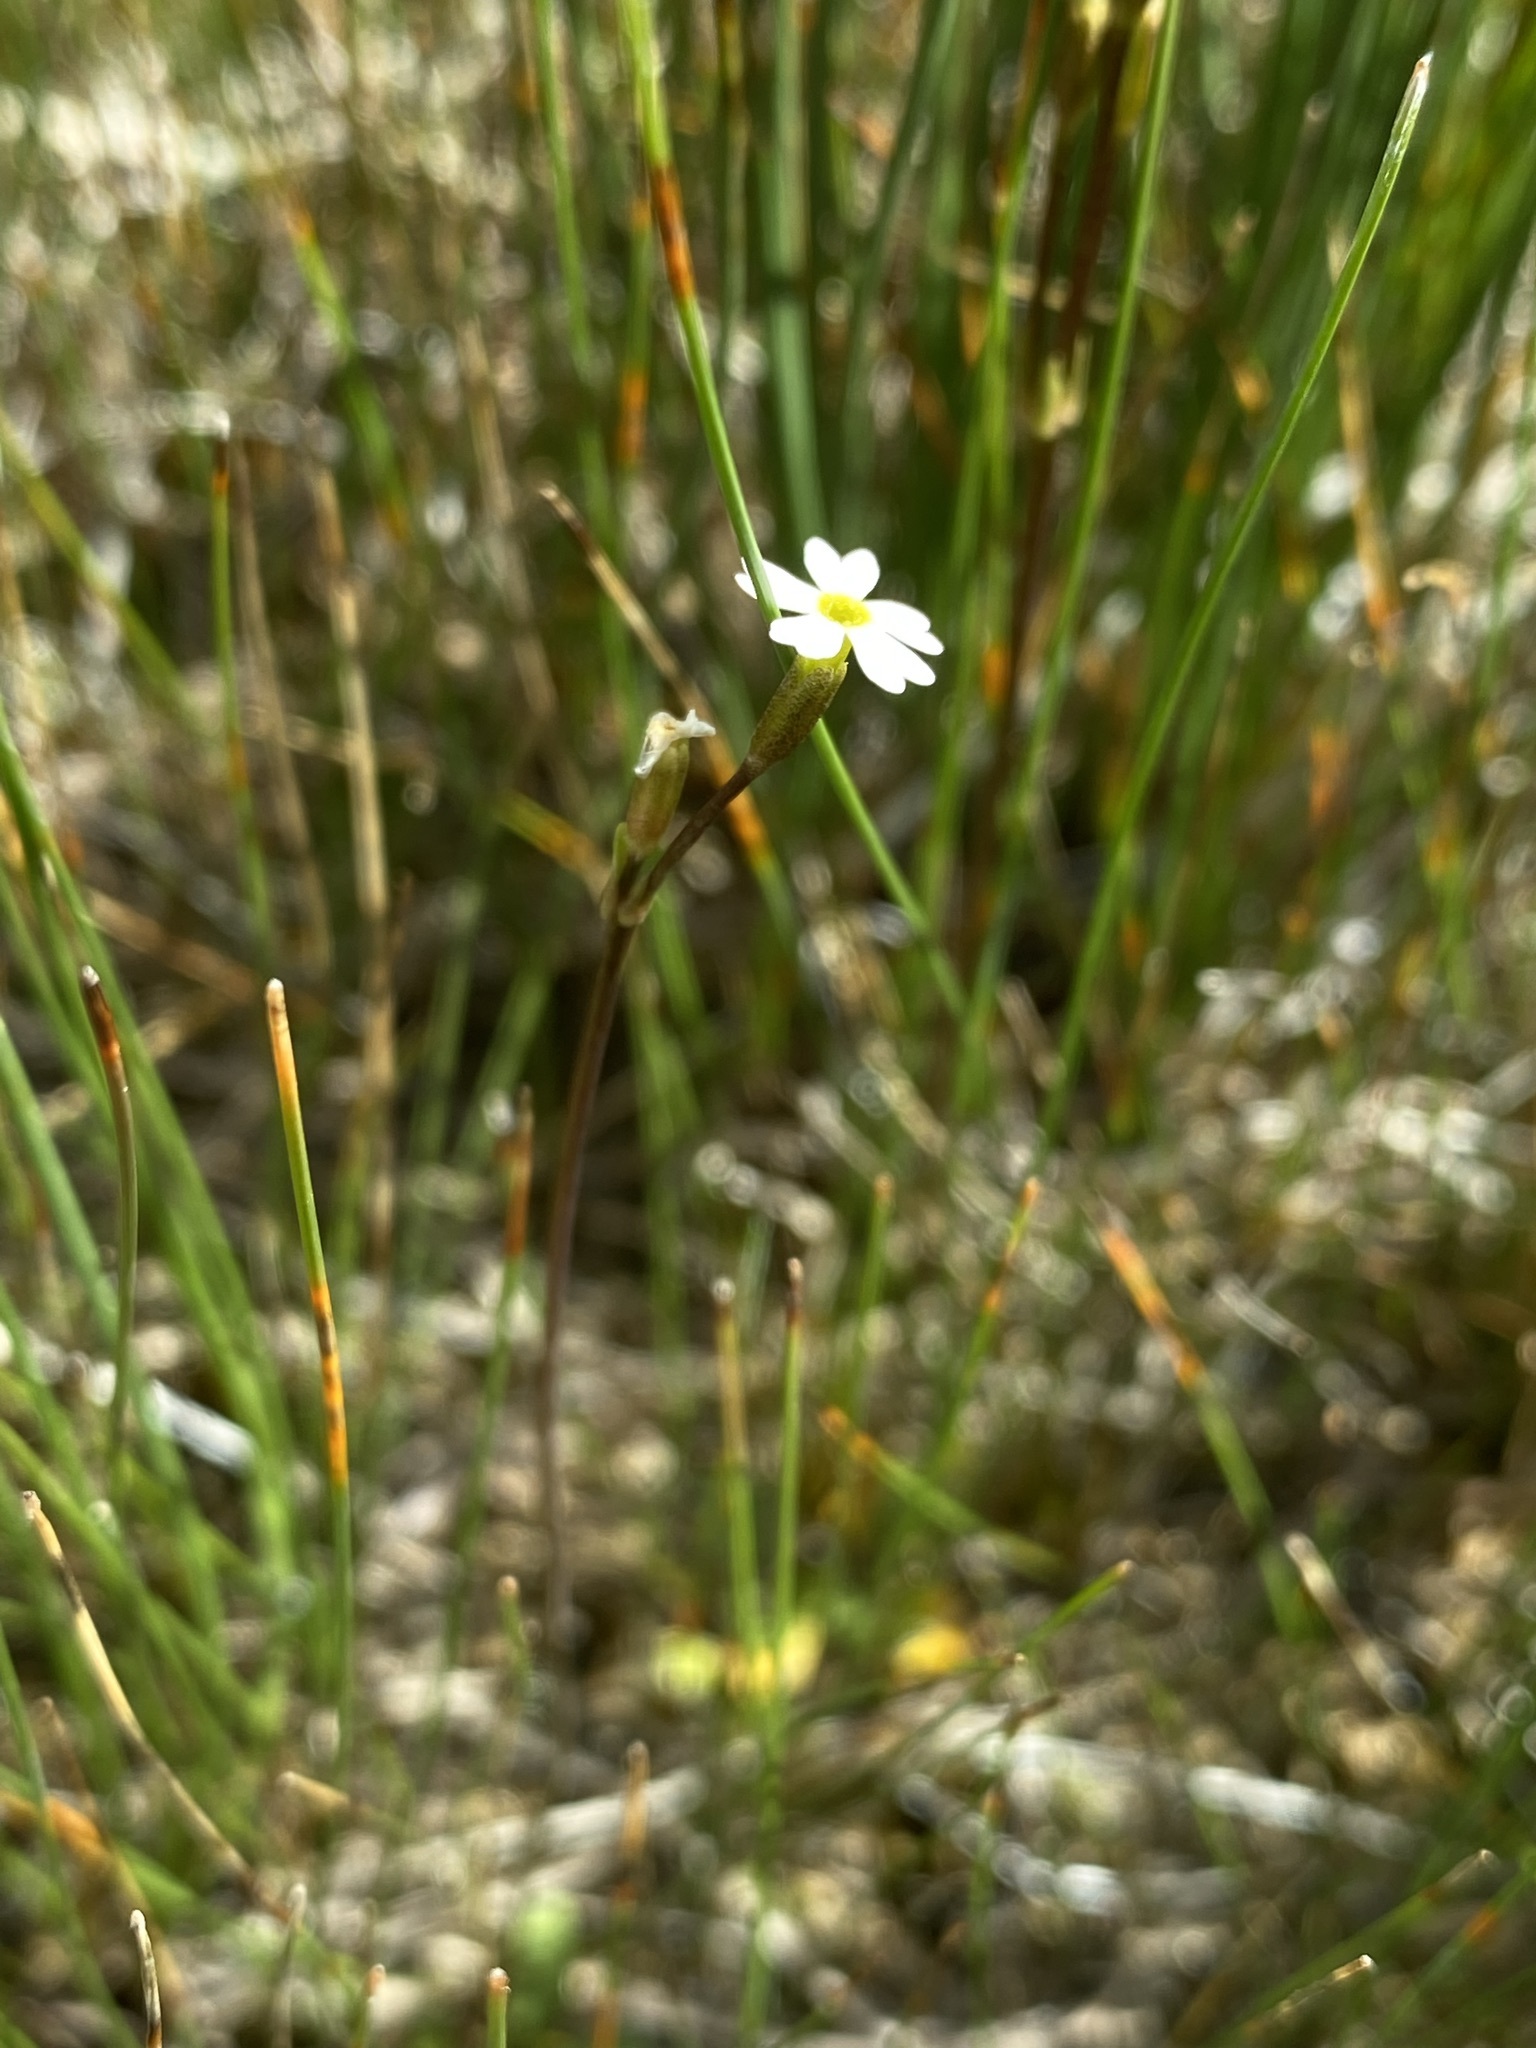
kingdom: Plantae
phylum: Tracheophyta
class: Magnoliopsida
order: Ericales
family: Primulaceae
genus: Primula
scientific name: Primula egaliksensis
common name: Greenland primrose
